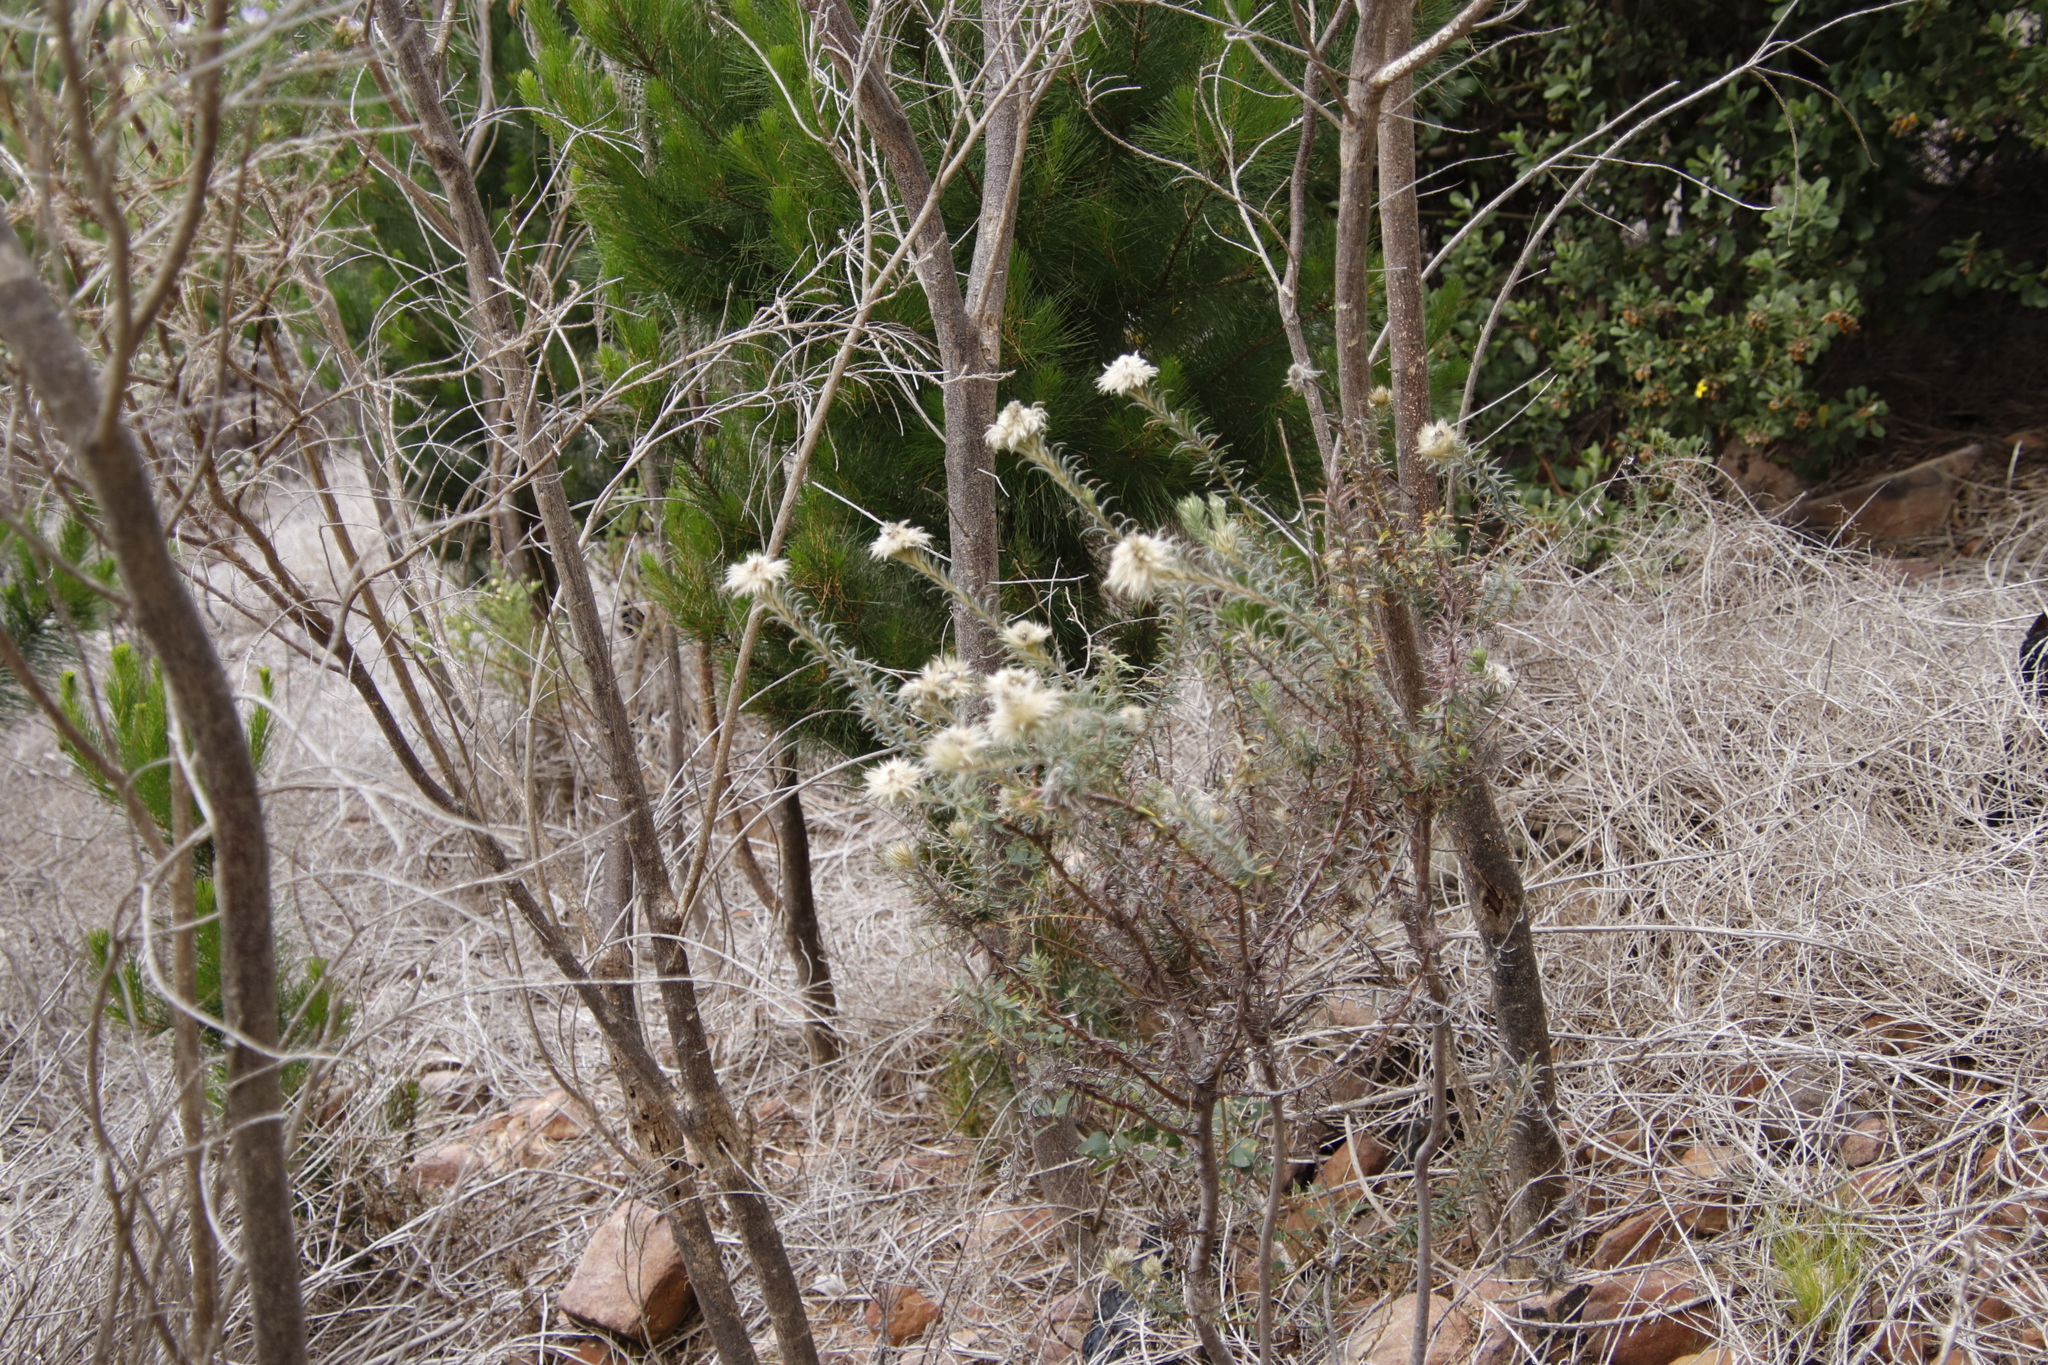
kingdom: Plantae
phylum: Tracheophyta
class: Magnoliopsida
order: Rosales
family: Rhamnaceae
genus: Phylica
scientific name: Phylica pubescens
